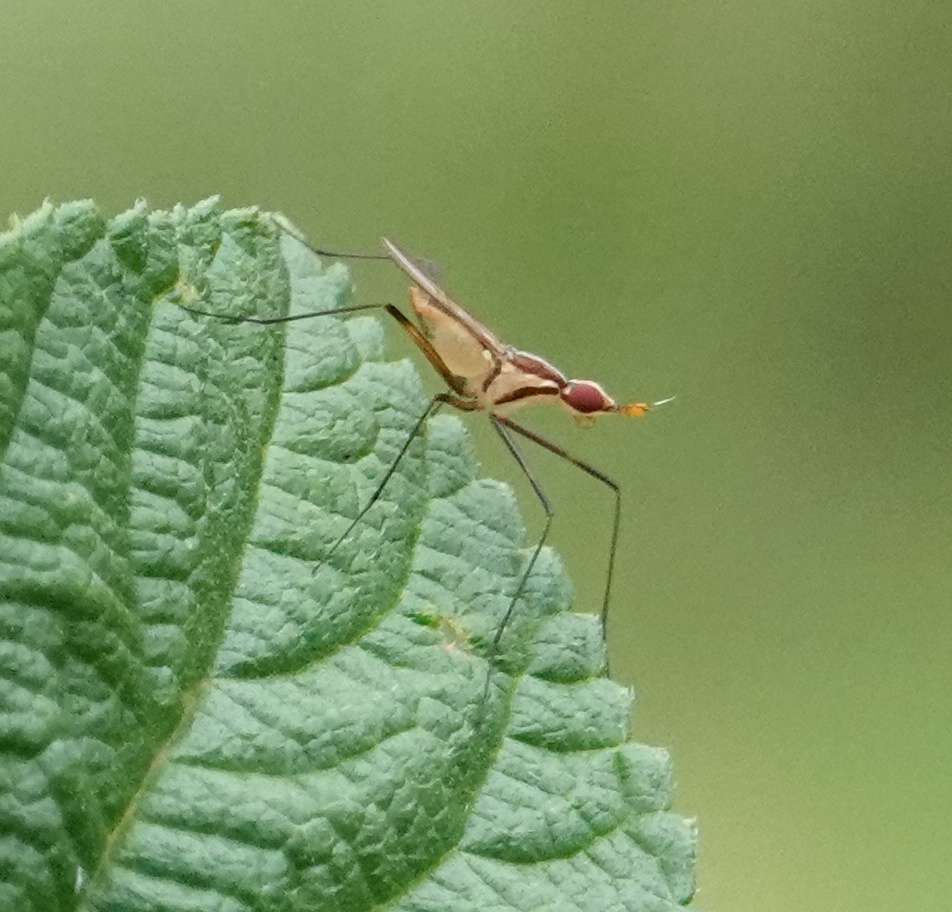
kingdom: Animalia
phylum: Arthropoda
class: Insecta
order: Diptera
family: Neriidae
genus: Telostylinus
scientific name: Telostylinus lineolatus
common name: Banana stalk fly
